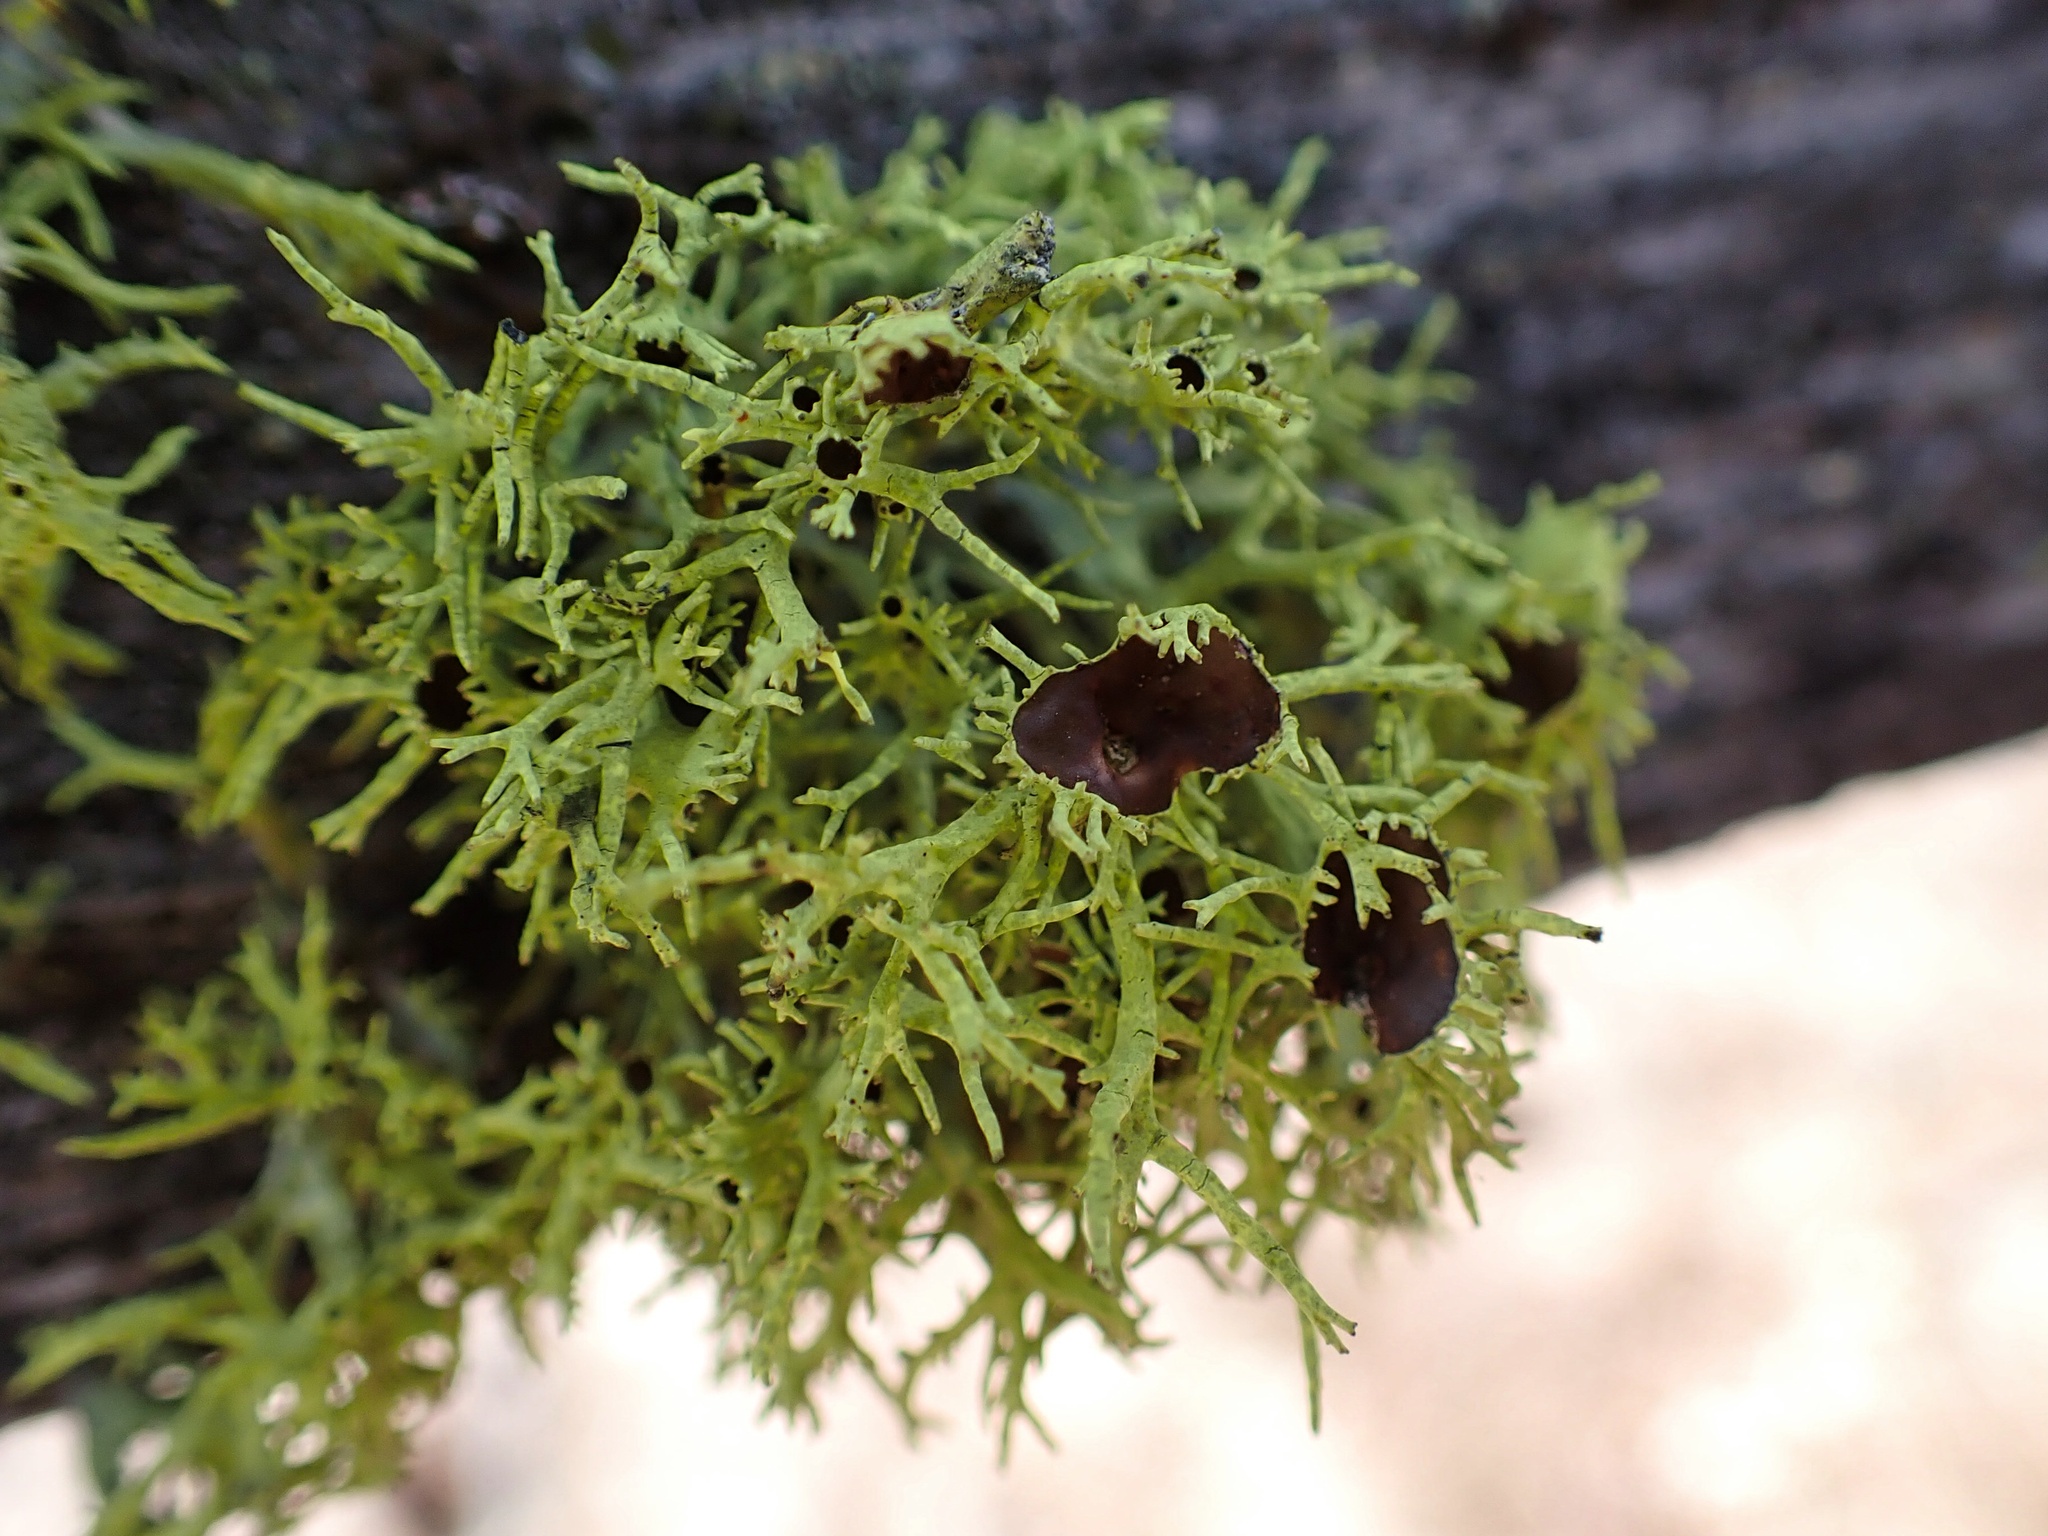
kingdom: Fungi
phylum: Ascomycota
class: Lecanoromycetes
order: Lecanorales
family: Parmeliaceae
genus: Letharia
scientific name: Letharia columbiana
